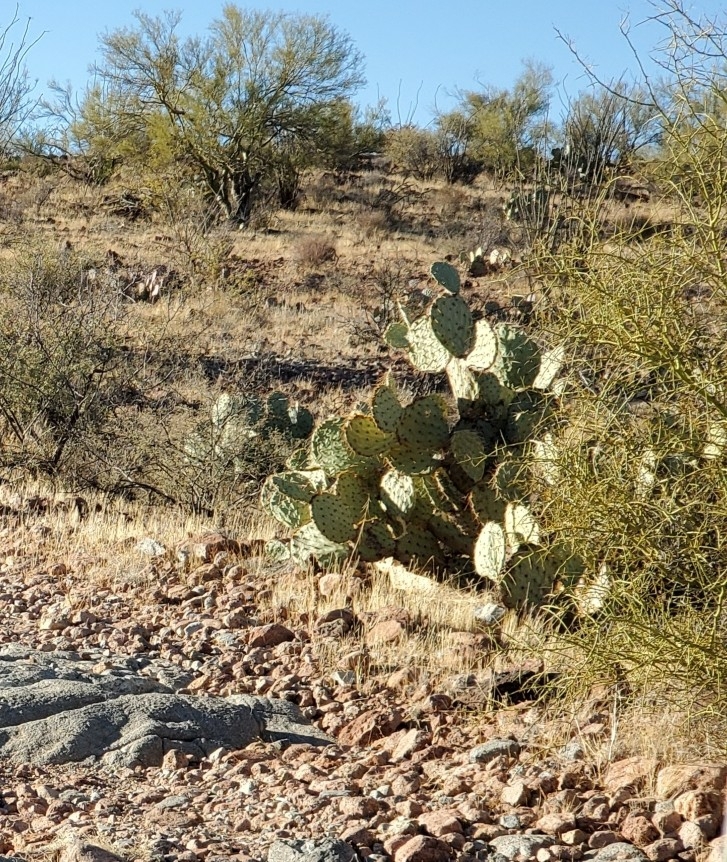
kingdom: Plantae
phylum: Tracheophyta
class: Magnoliopsida
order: Caryophyllales
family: Cactaceae
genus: Opuntia
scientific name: Opuntia orbiculata
